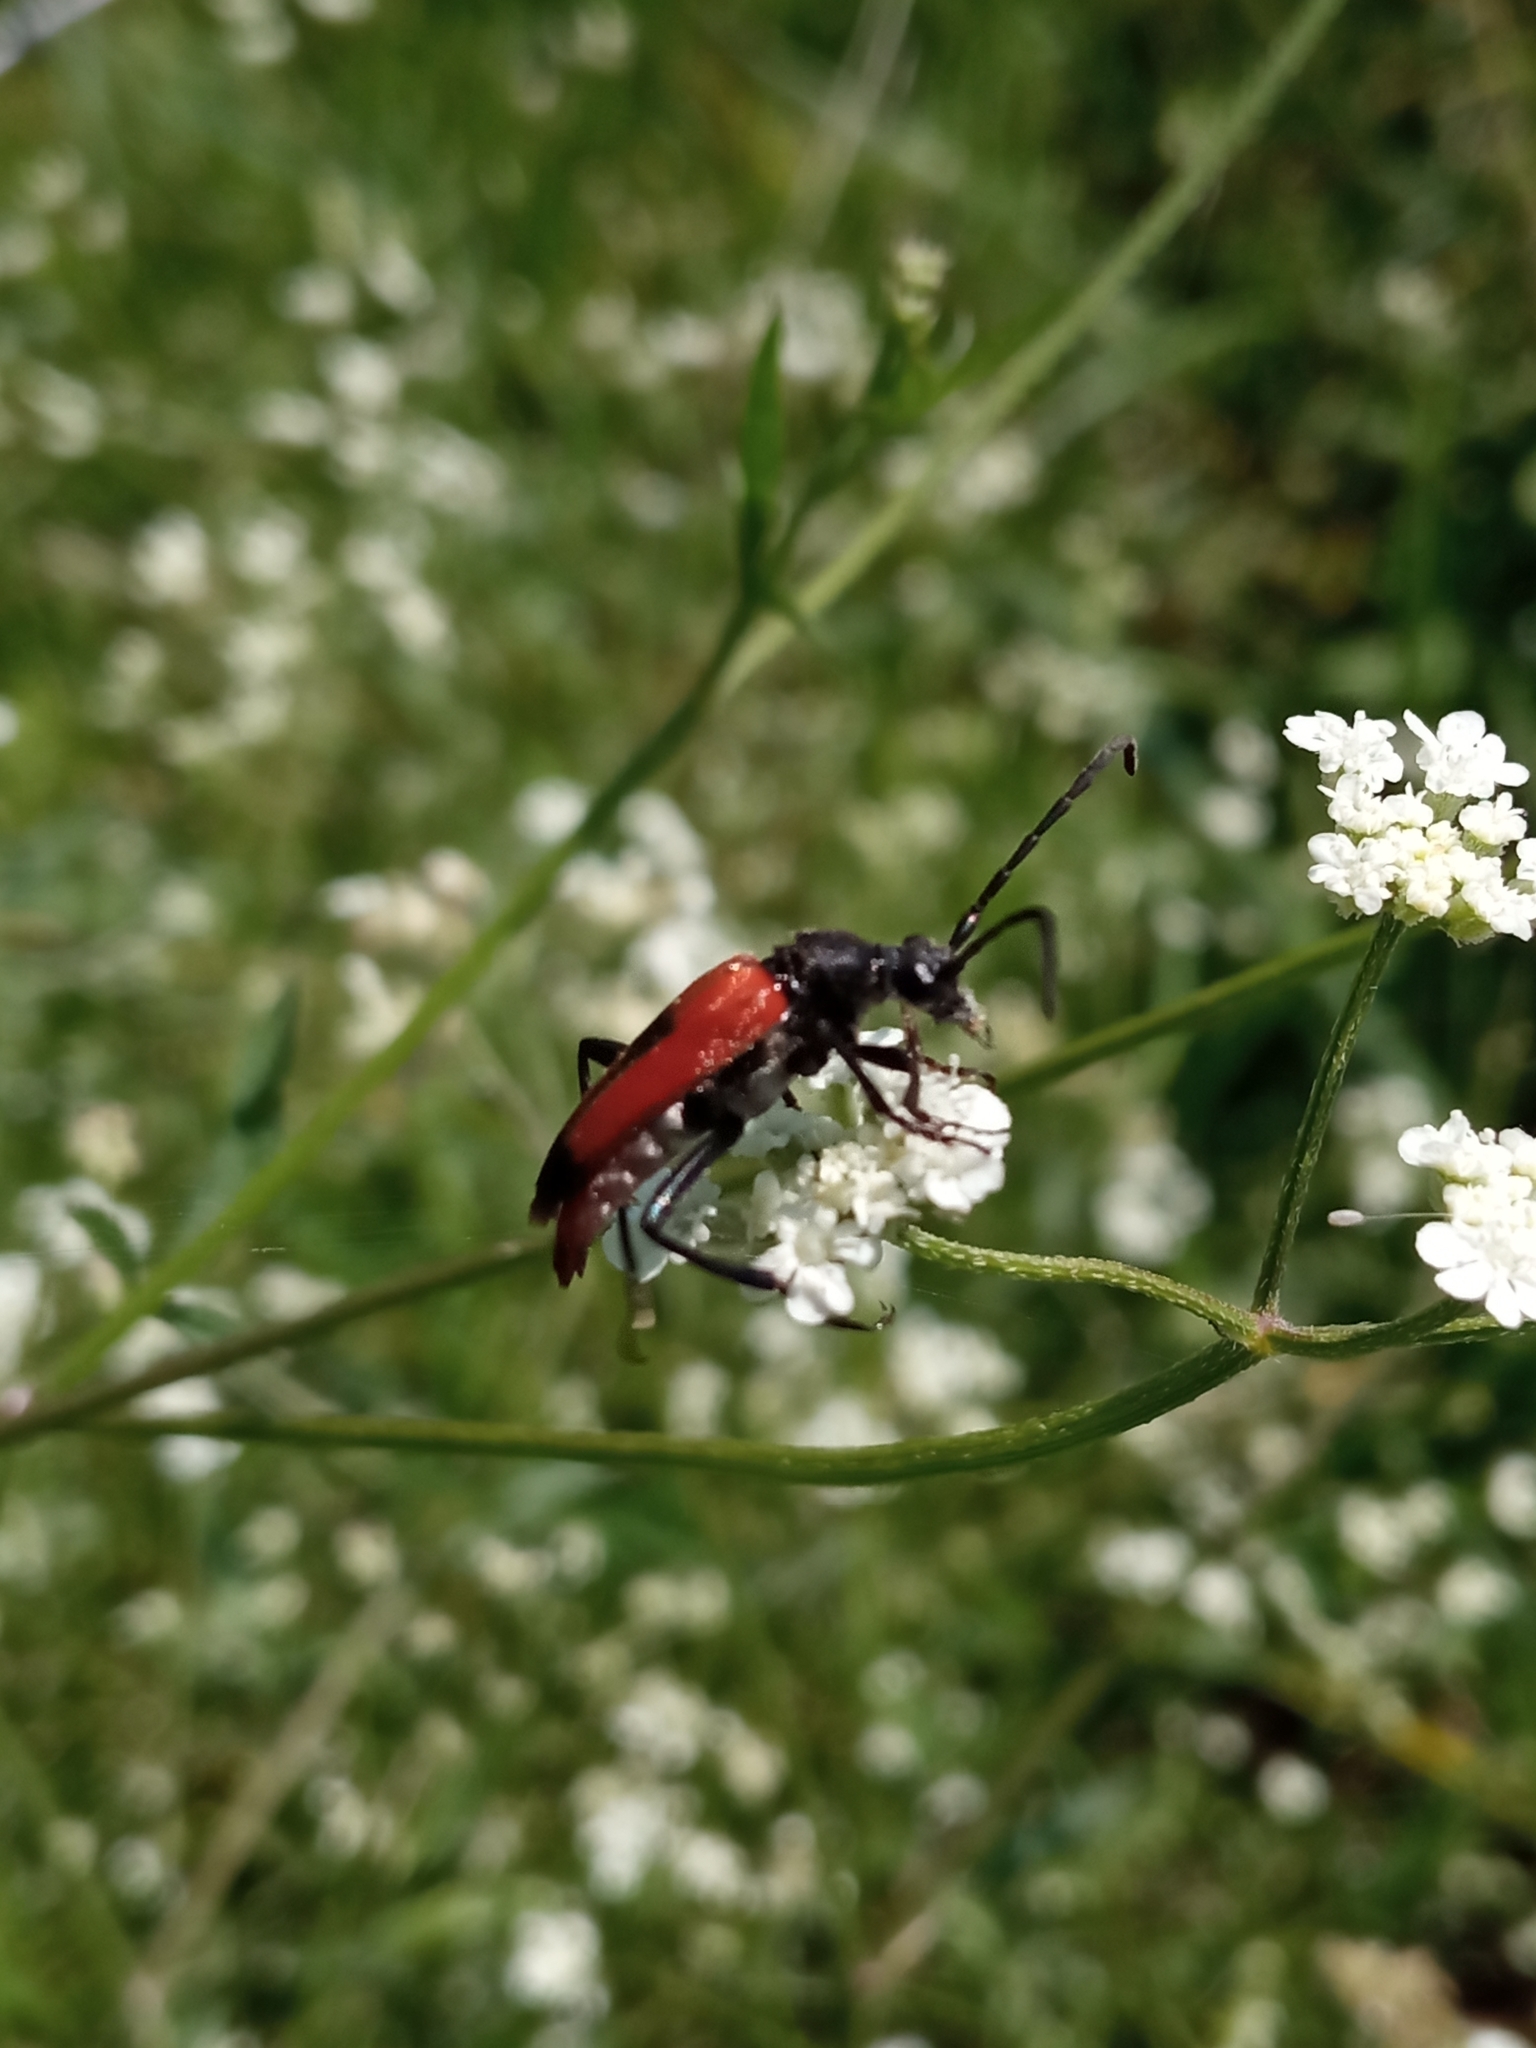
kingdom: Animalia
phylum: Arthropoda
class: Insecta
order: Coleoptera
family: Cerambycidae
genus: Stictoleptura
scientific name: Stictoleptura cordigera
